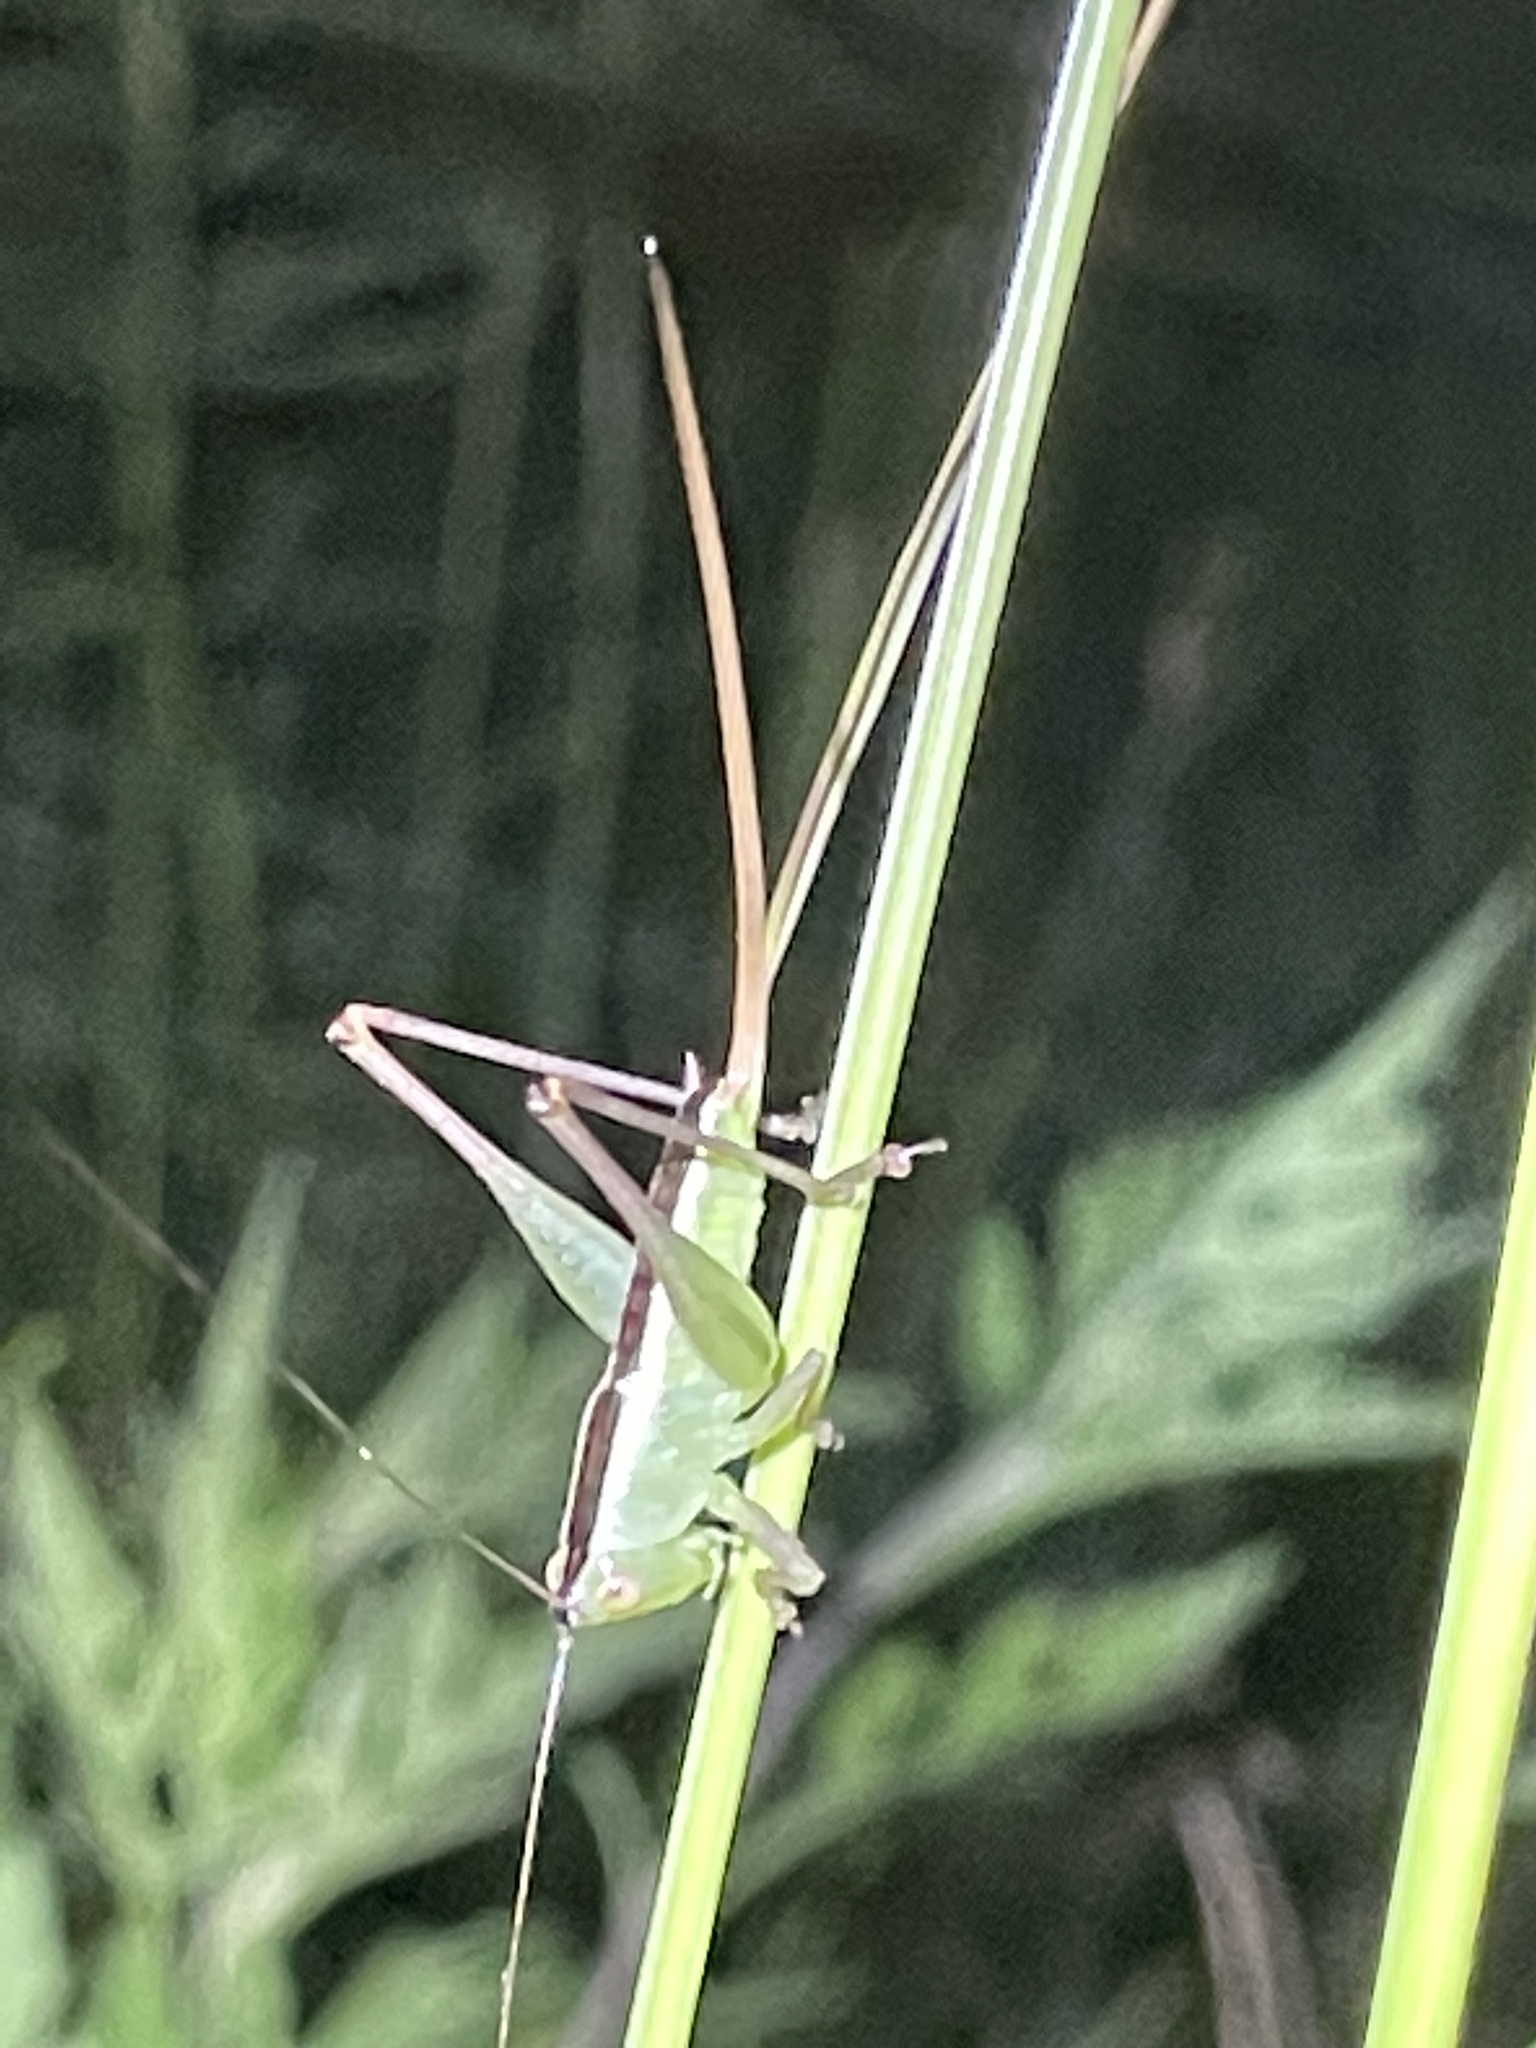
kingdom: Animalia
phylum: Arthropoda
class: Insecta
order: Orthoptera
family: Tettigoniidae
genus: Conocephalus
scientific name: Conocephalus strictus
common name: Straight-lanced katydid
